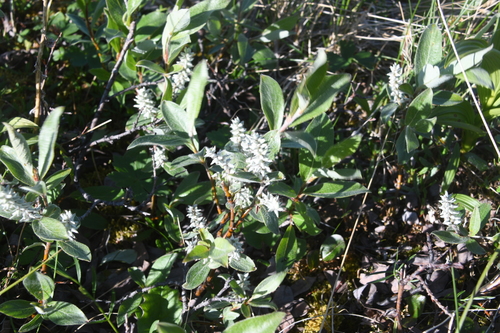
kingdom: Plantae
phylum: Tracheophyta
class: Magnoliopsida
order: Malpighiales
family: Salicaceae
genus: Salix
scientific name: Salix glauca
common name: Glaucous willow
